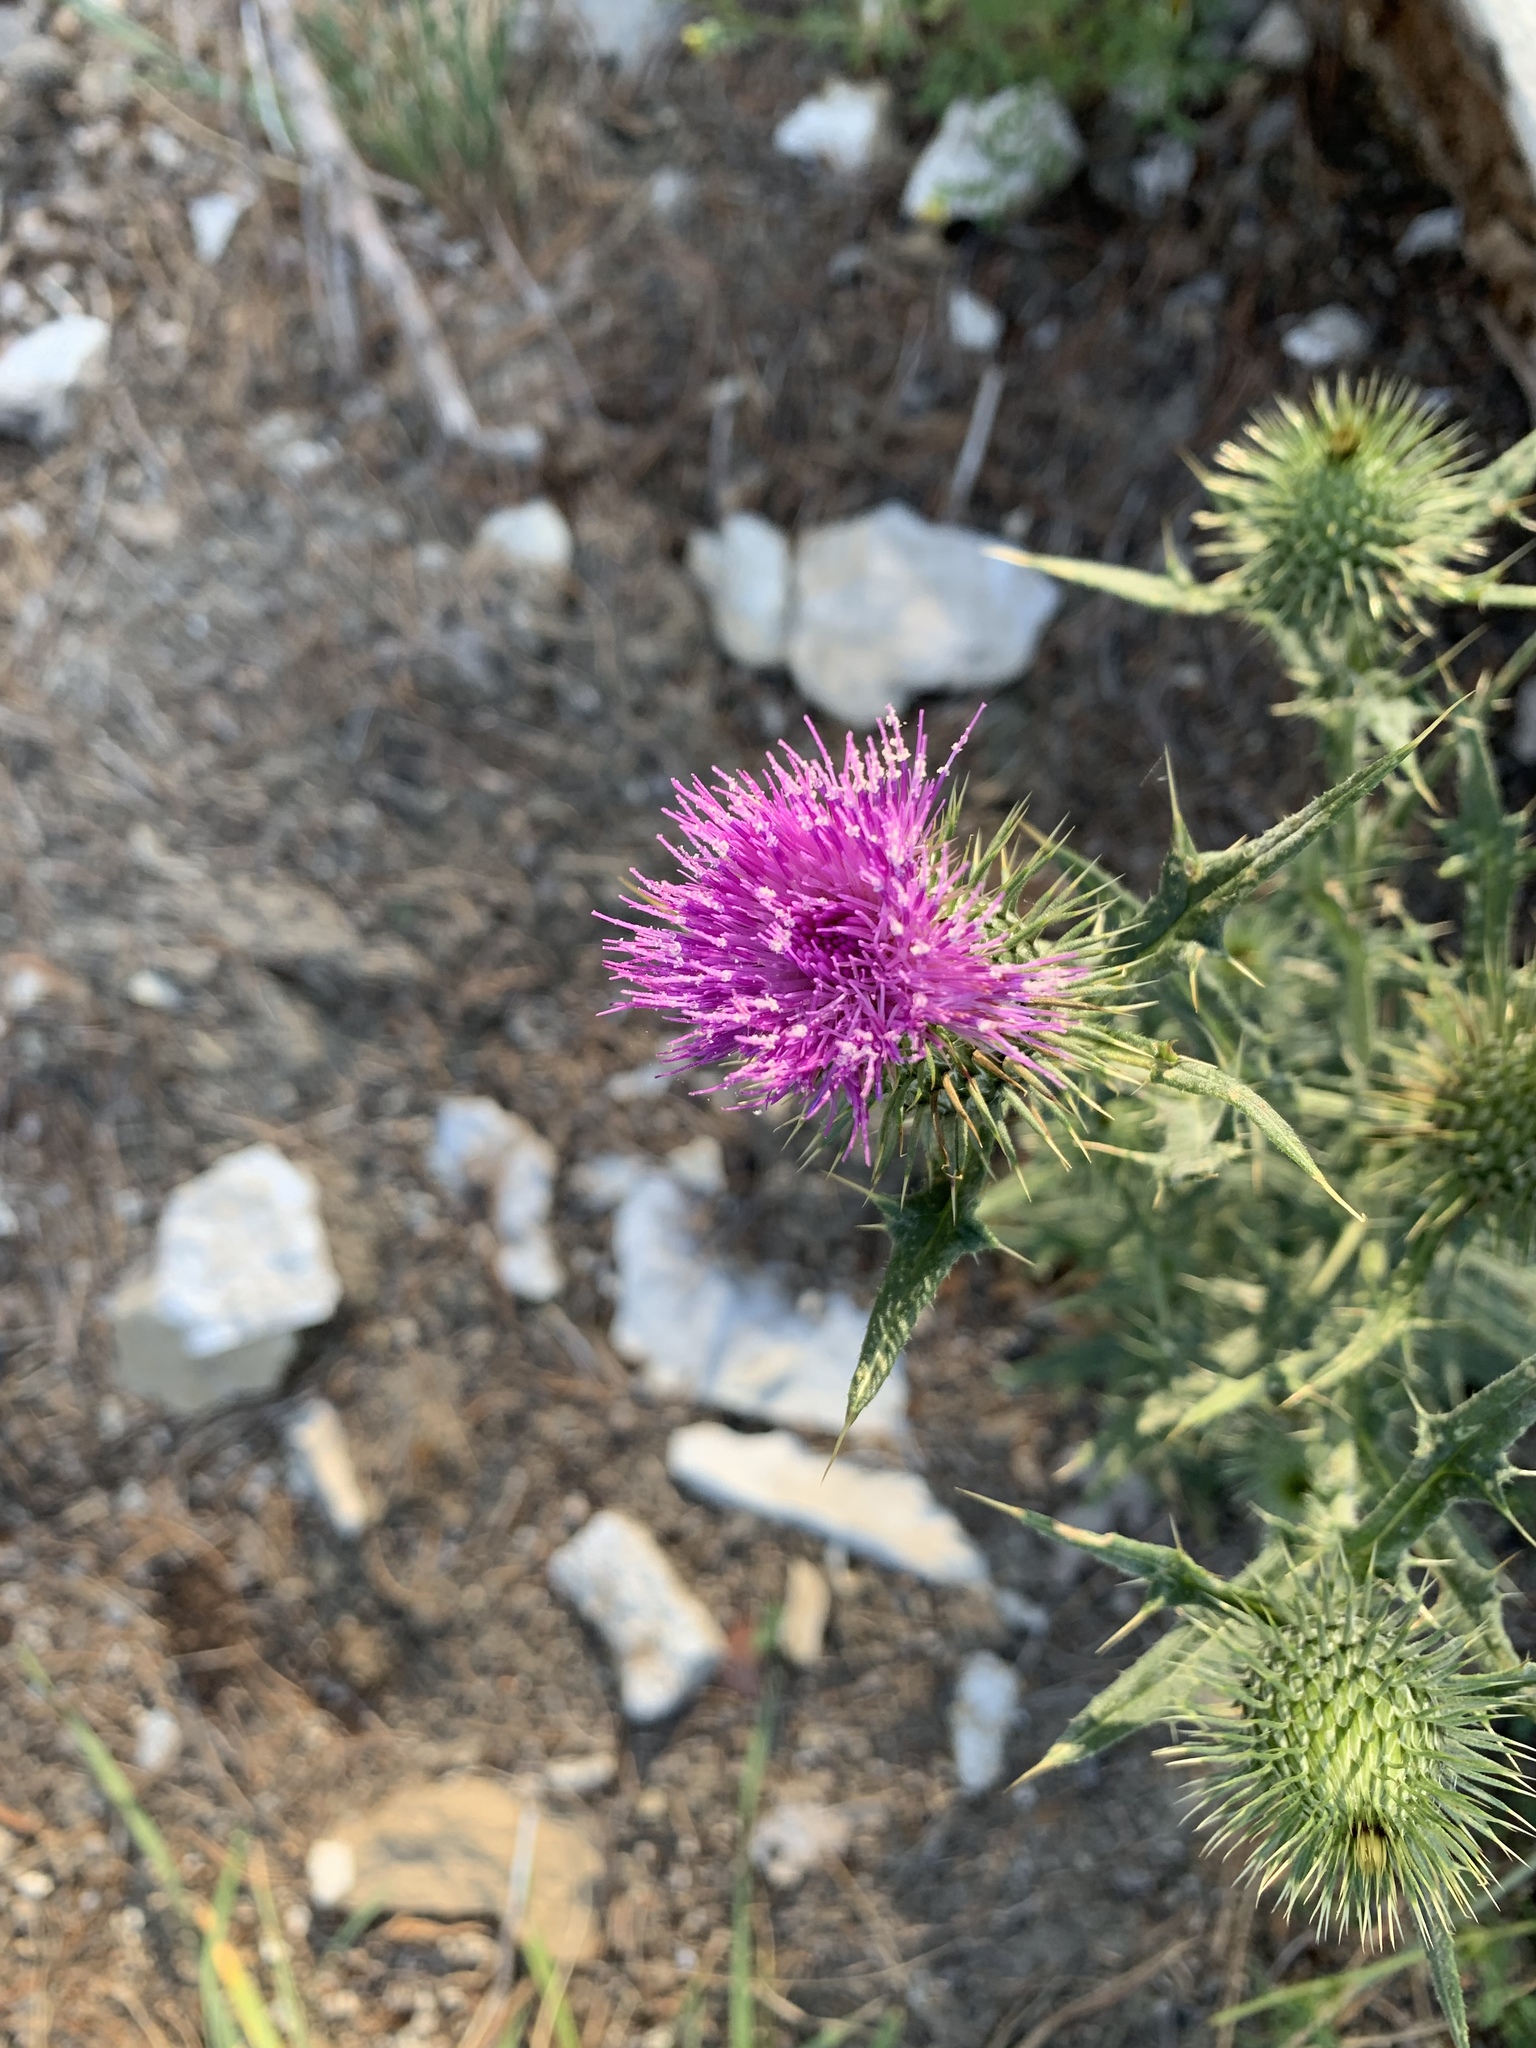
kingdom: Plantae
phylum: Tracheophyta
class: Magnoliopsida
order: Asterales
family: Asteraceae
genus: Cirsium
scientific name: Cirsium vulgare
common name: Bull thistle
